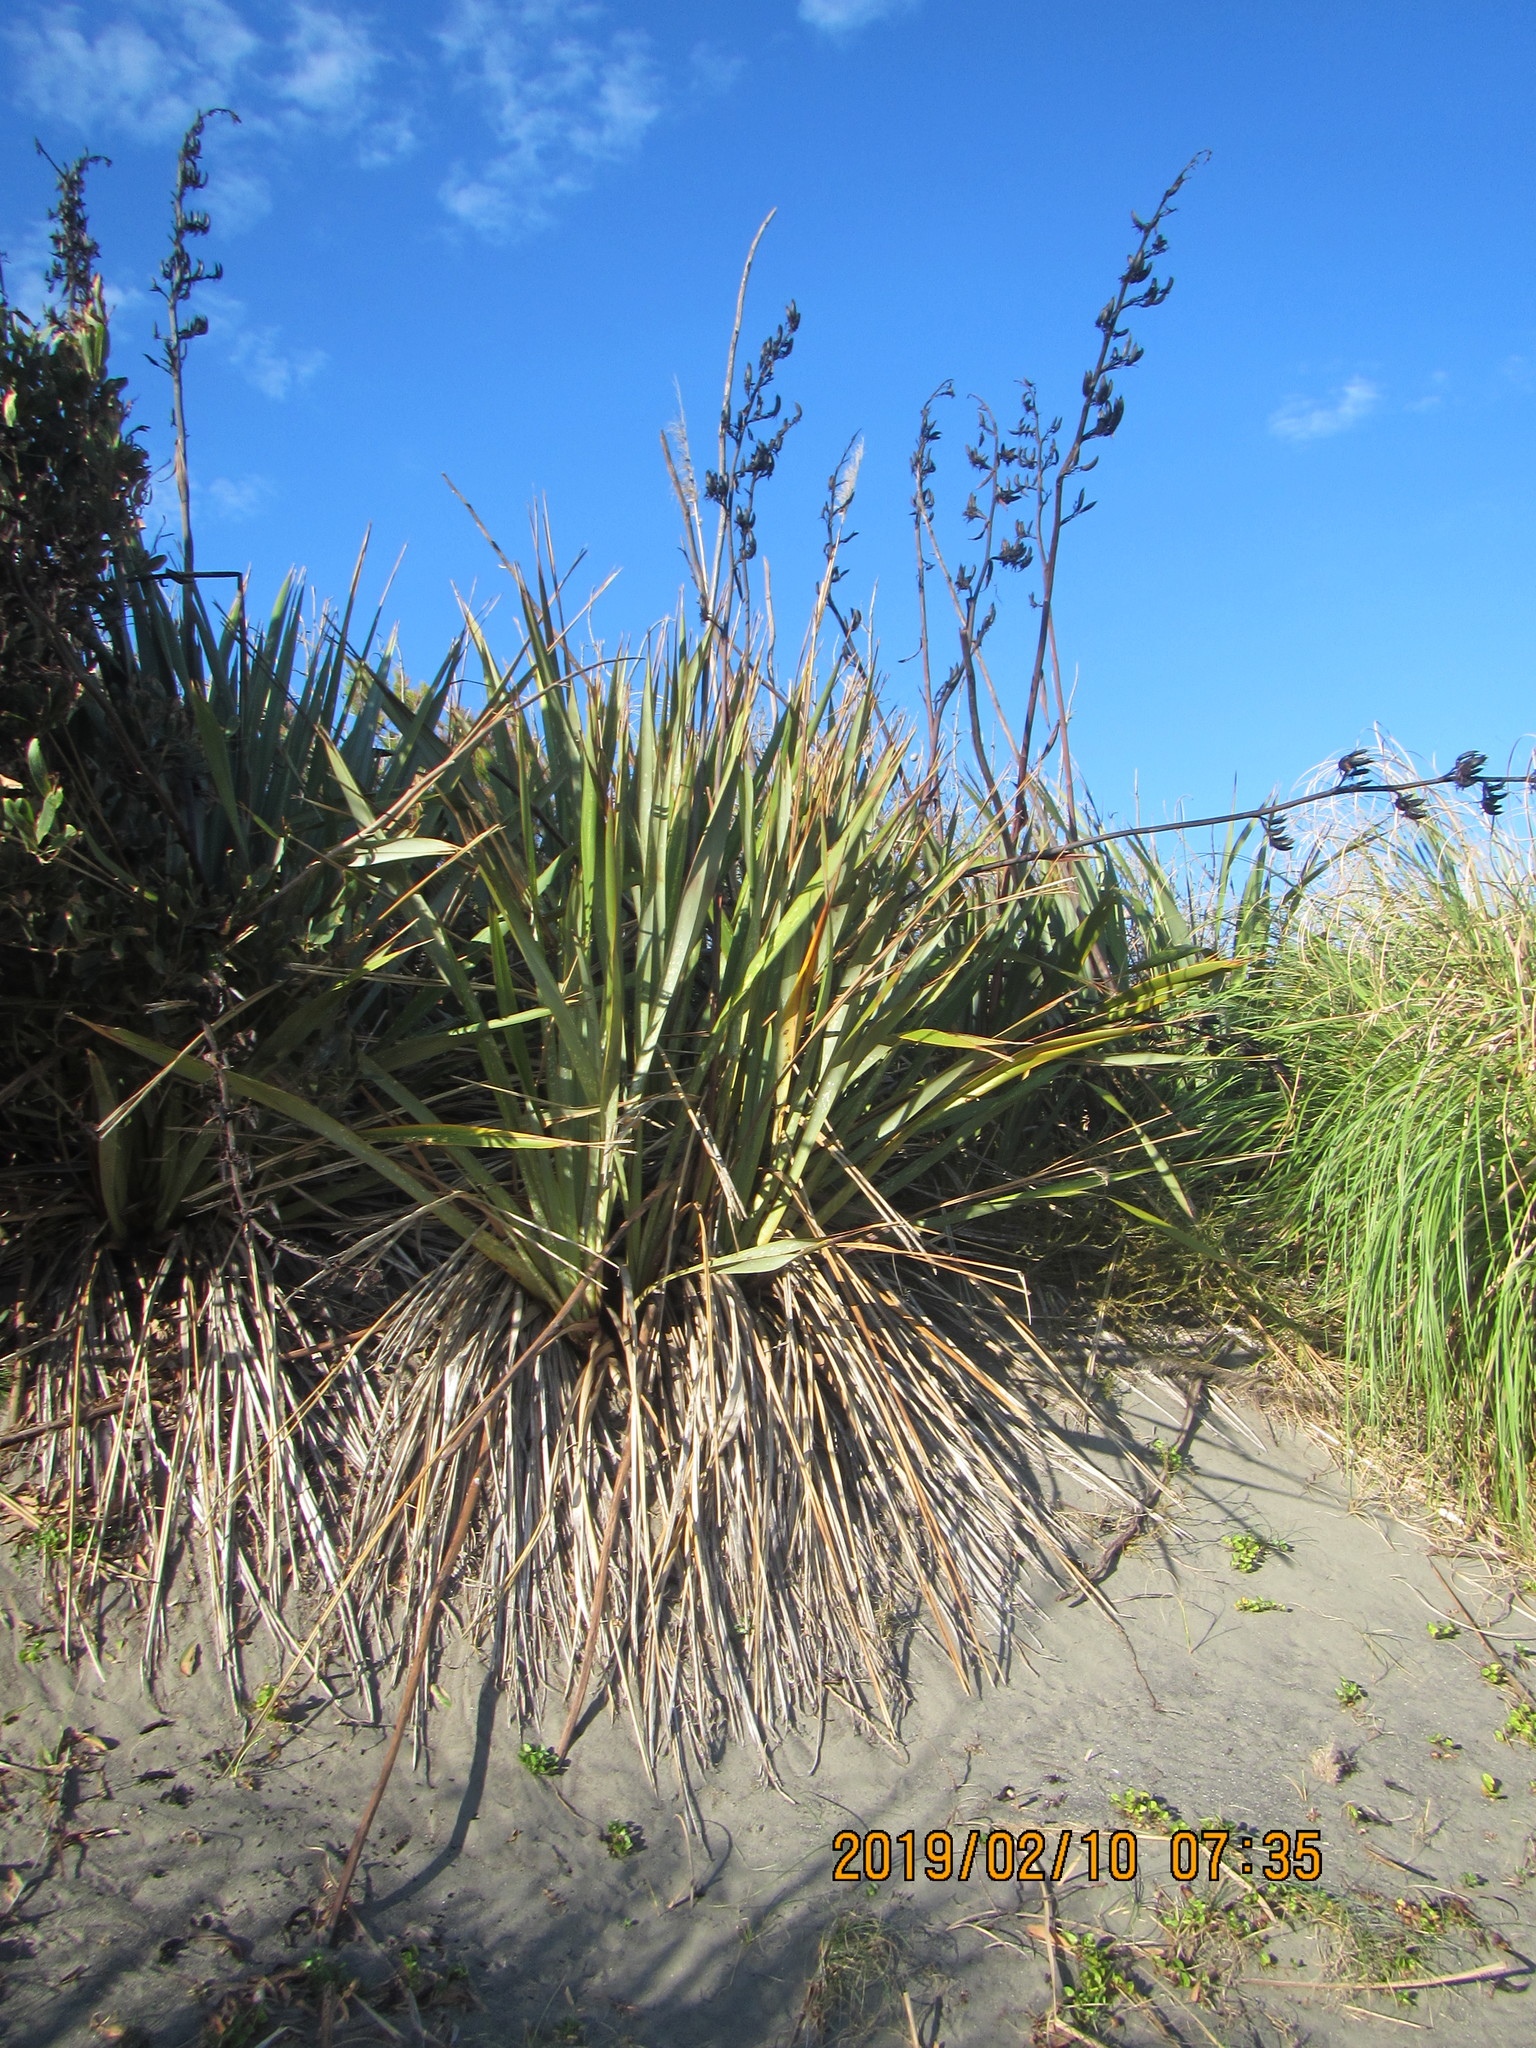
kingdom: Plantae
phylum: Tracheophyta
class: Liliopsida
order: Asparagales
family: Asphodelaceae
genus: Phormium
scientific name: Phormium tenax
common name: New zealand flax
